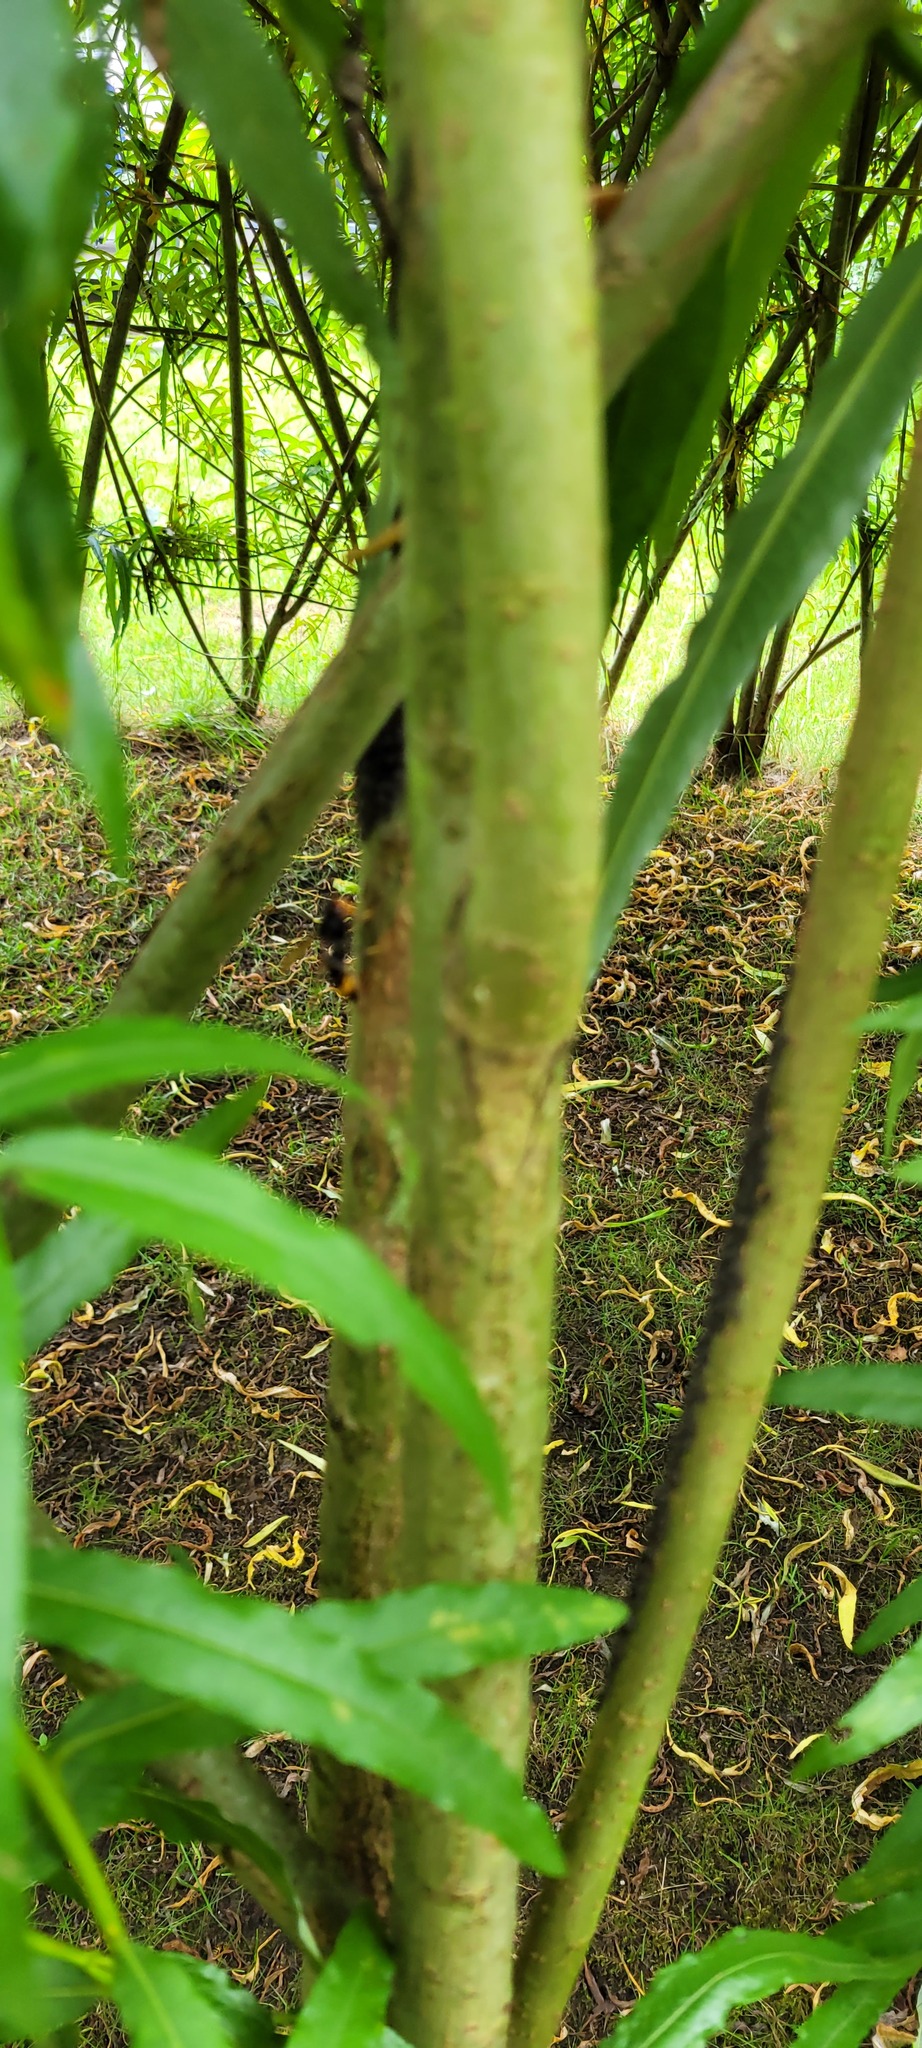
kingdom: Animalia
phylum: Arthropoda
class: Insecta
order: Hymenoptera
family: Vespidae
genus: Vespa
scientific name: Vespa velutina
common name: Asian hornet
